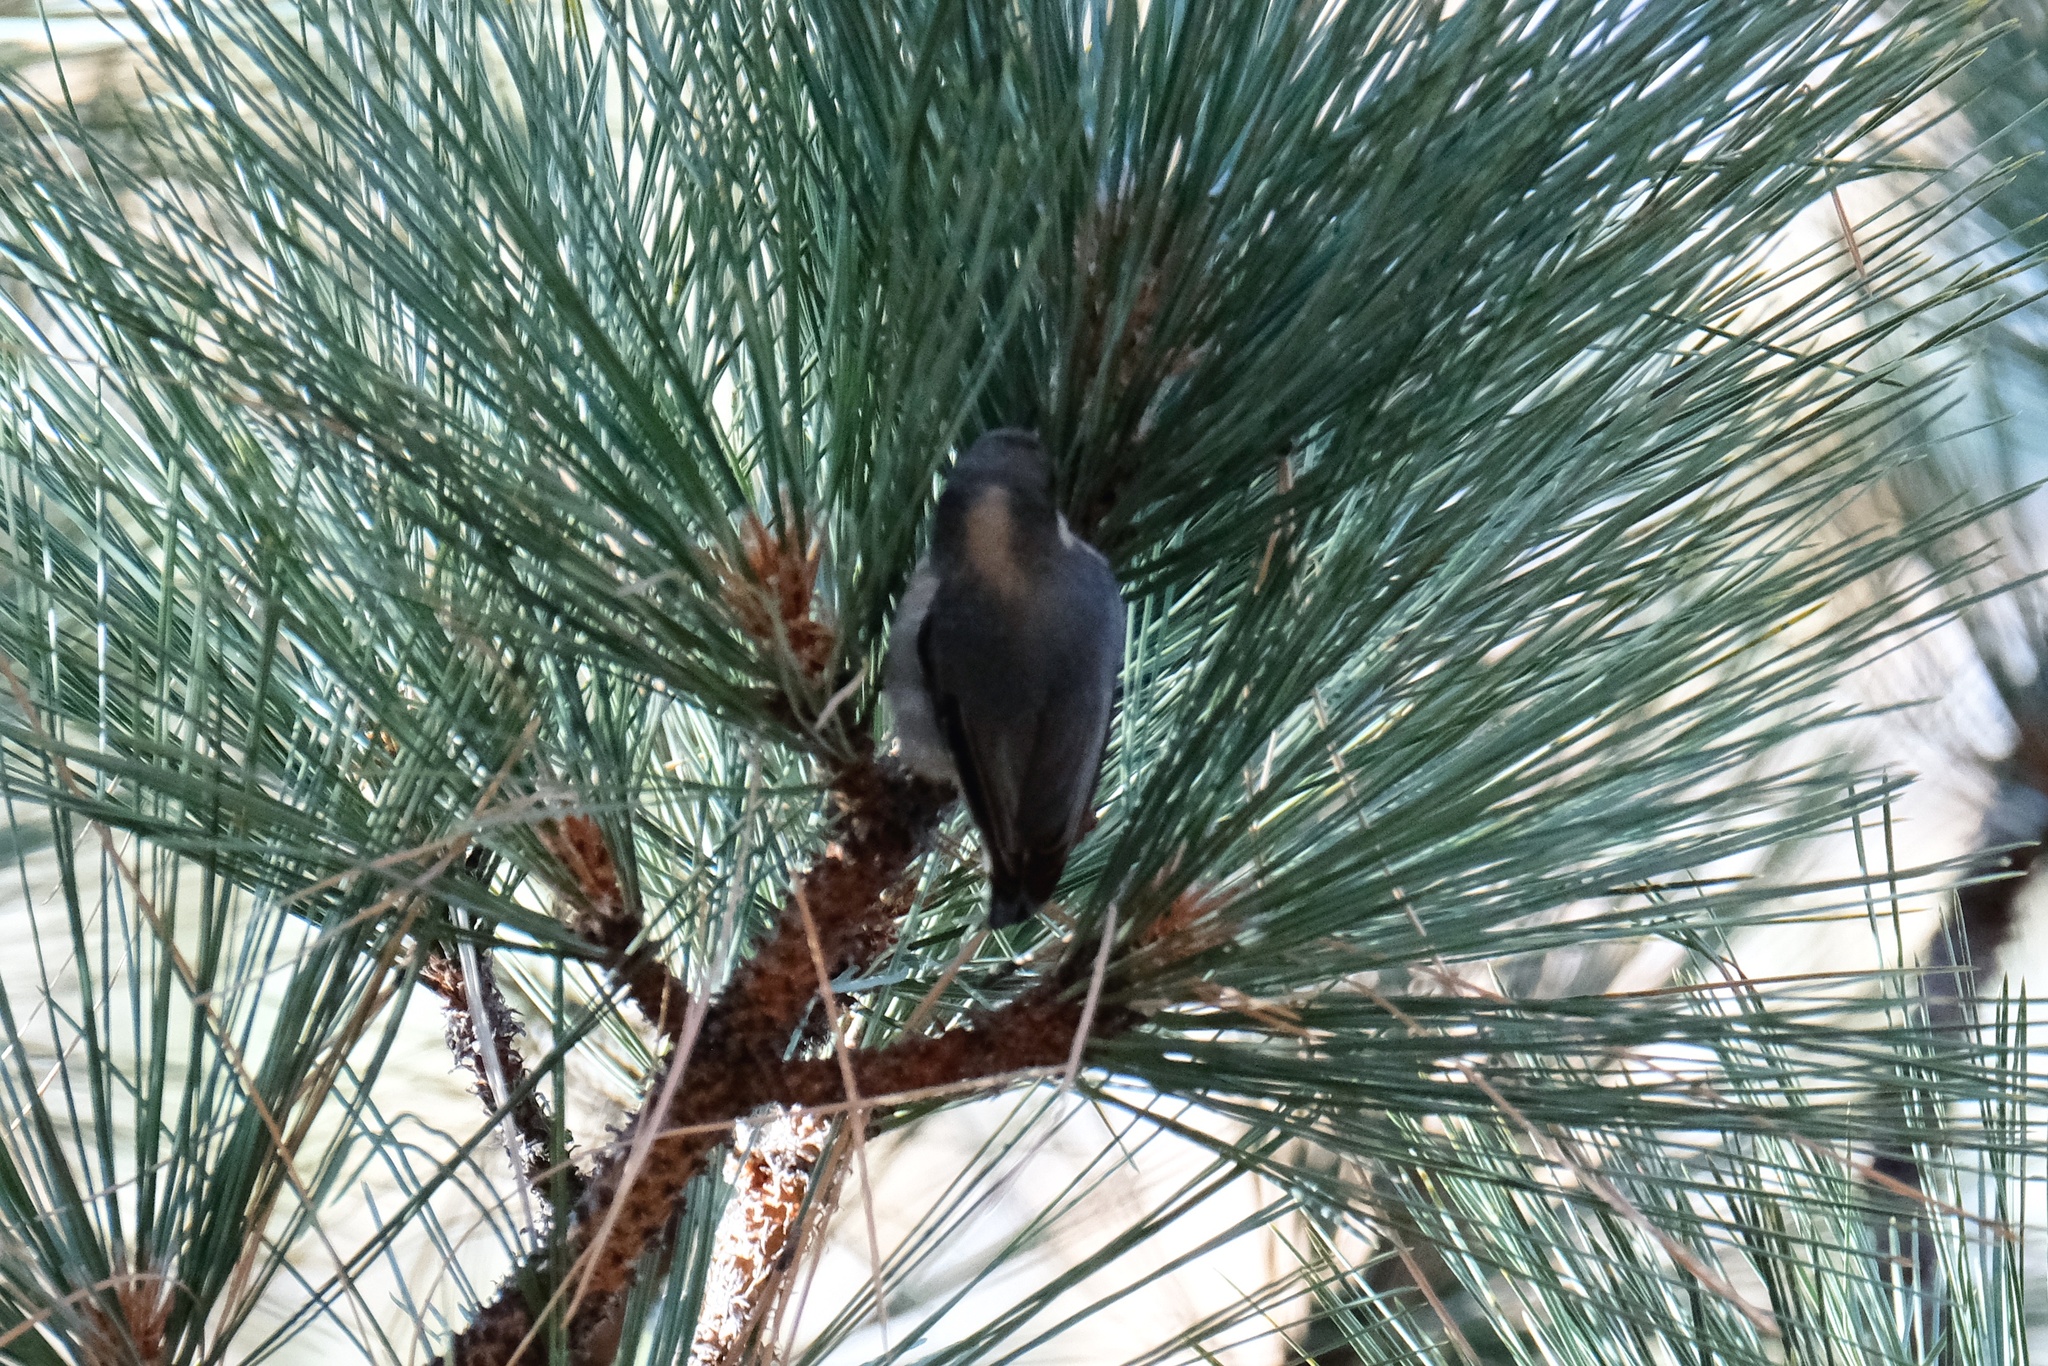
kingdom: Animalia
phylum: Chordata
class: Aves
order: Passeriformes
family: Sittidae
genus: Sitta
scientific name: Sitta pygmaea
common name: Pygmy nuthatch
